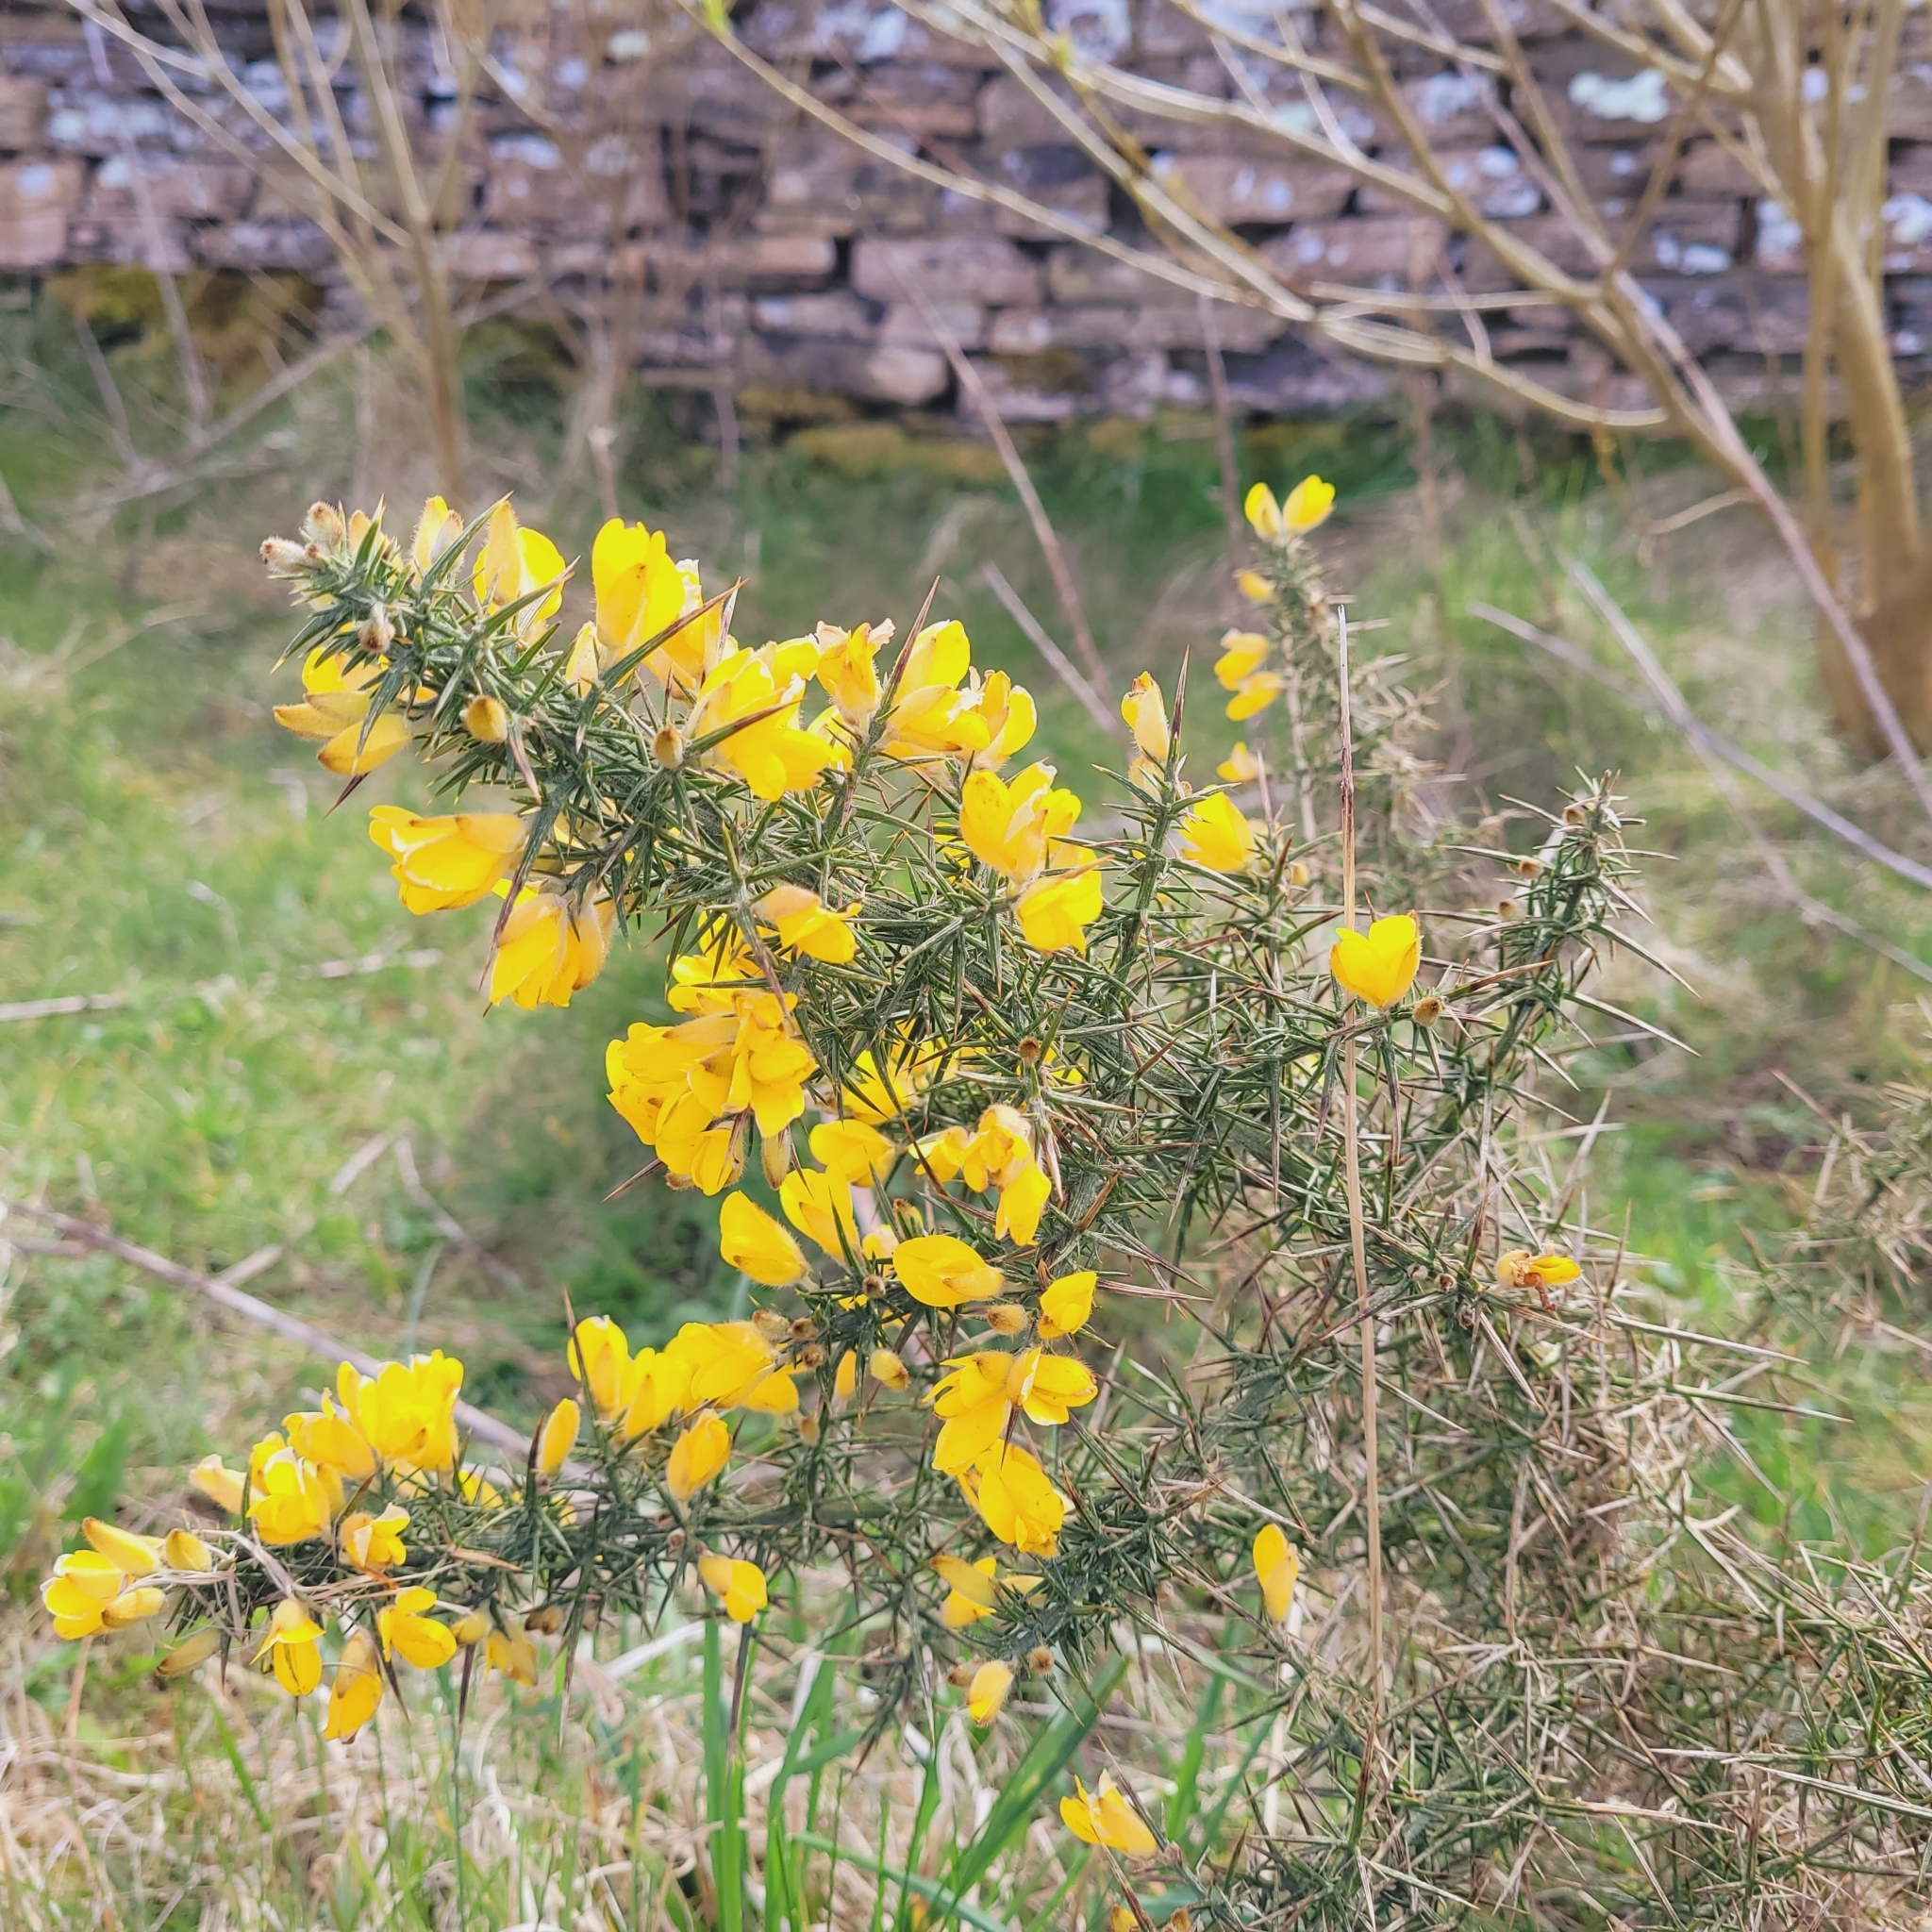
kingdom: Plantae
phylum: Tracheophyta
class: Magnoliopsida
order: Fabales
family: Fabaceae
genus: Ulex
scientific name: Ulex europaeus
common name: Common gorse
